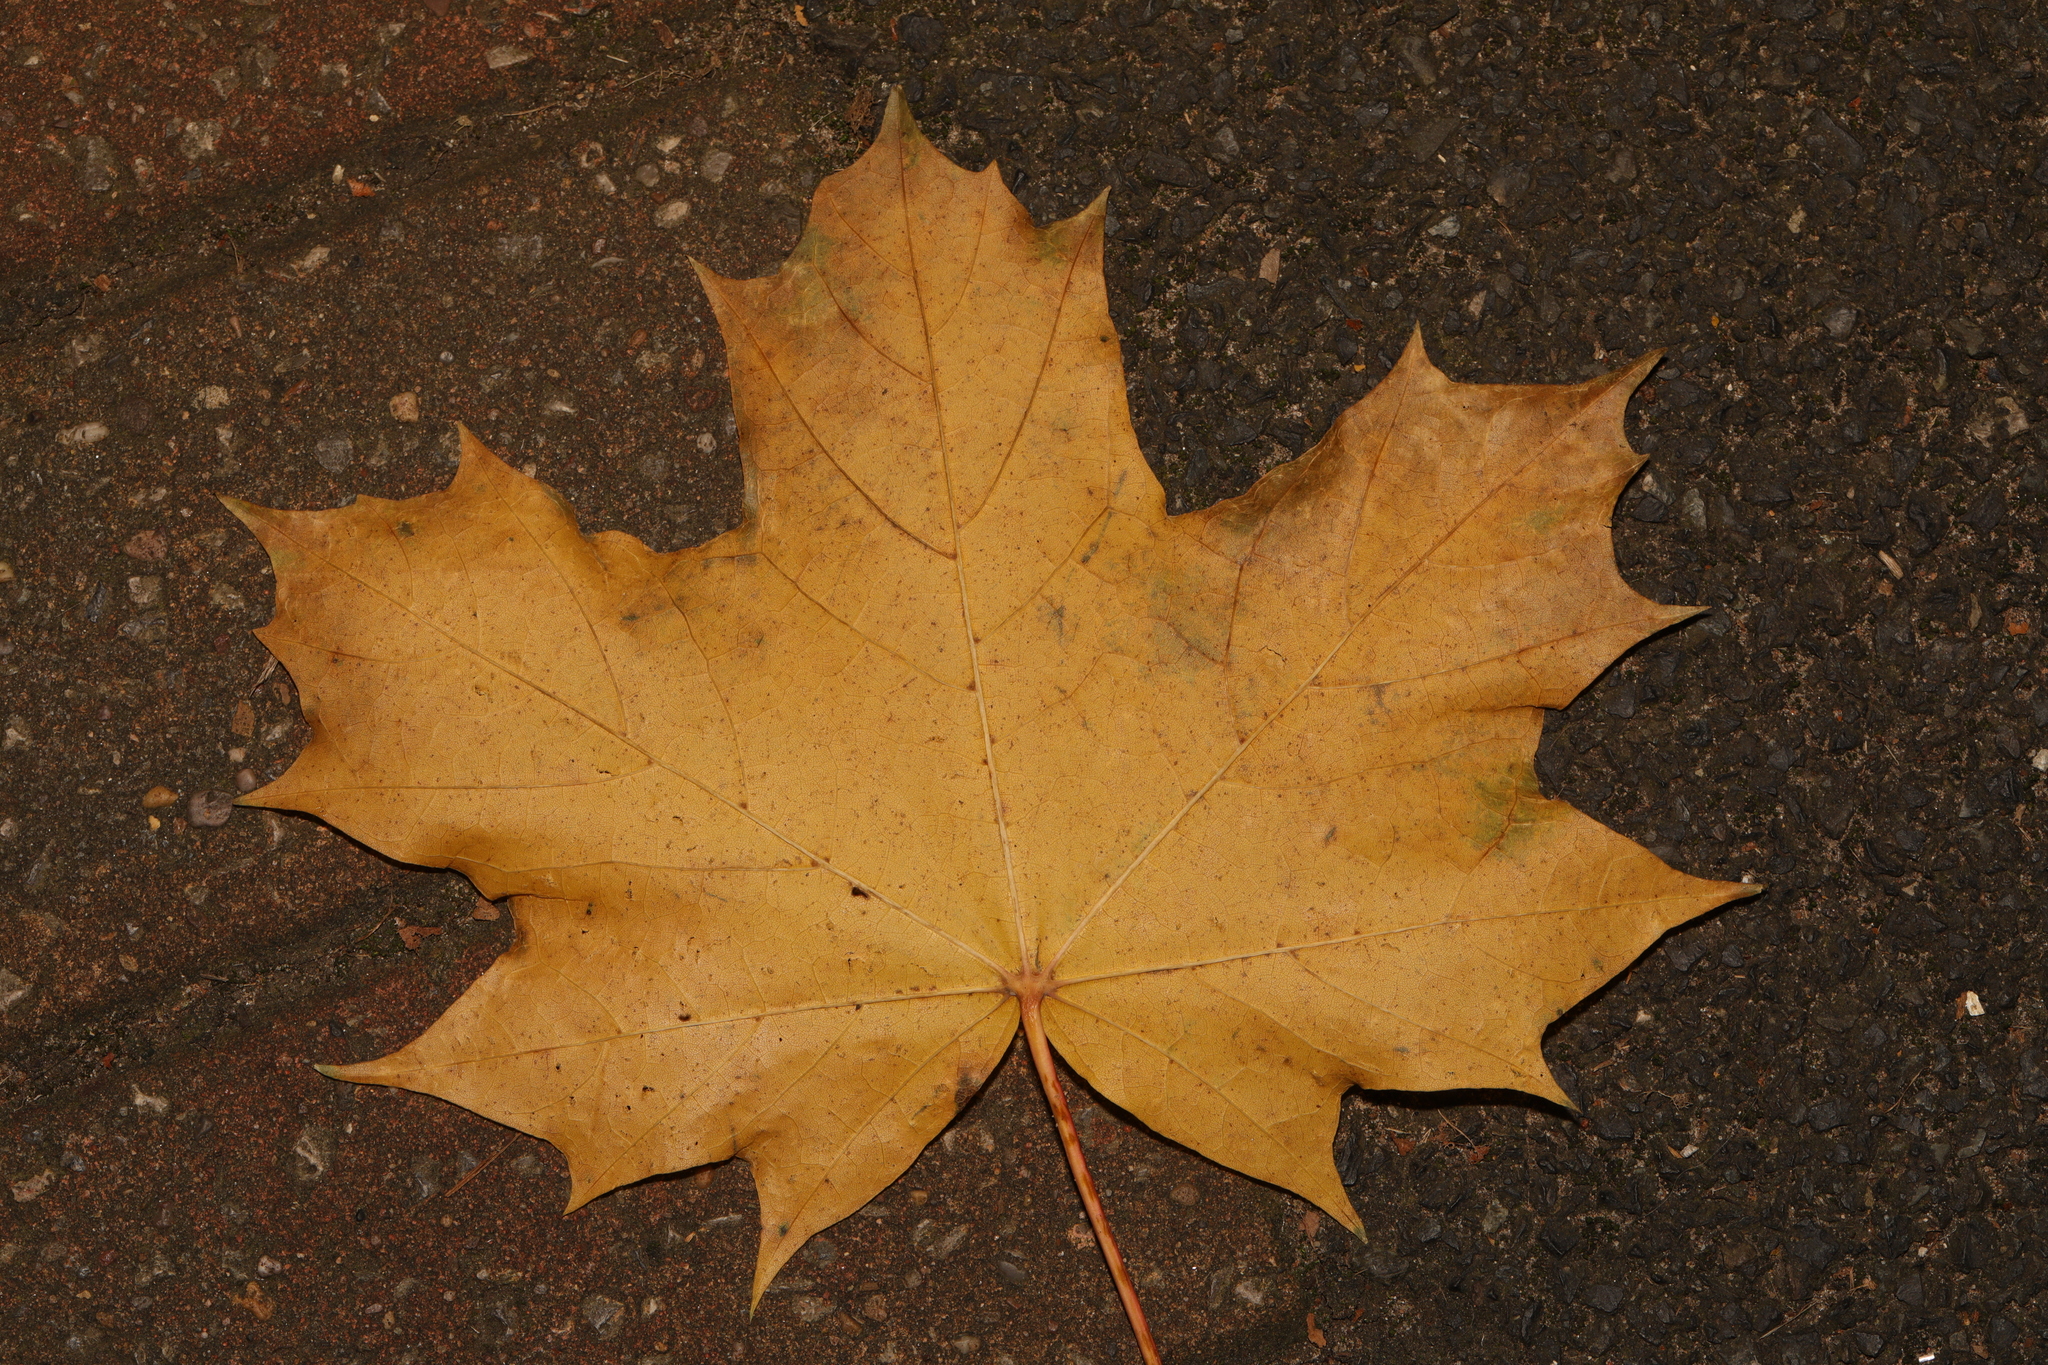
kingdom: Plantae
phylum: Tracheophyta
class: Magnoliopsida
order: Sapindales
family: Sapindaceae
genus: Acer
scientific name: Acer platanoides
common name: Norway maple
